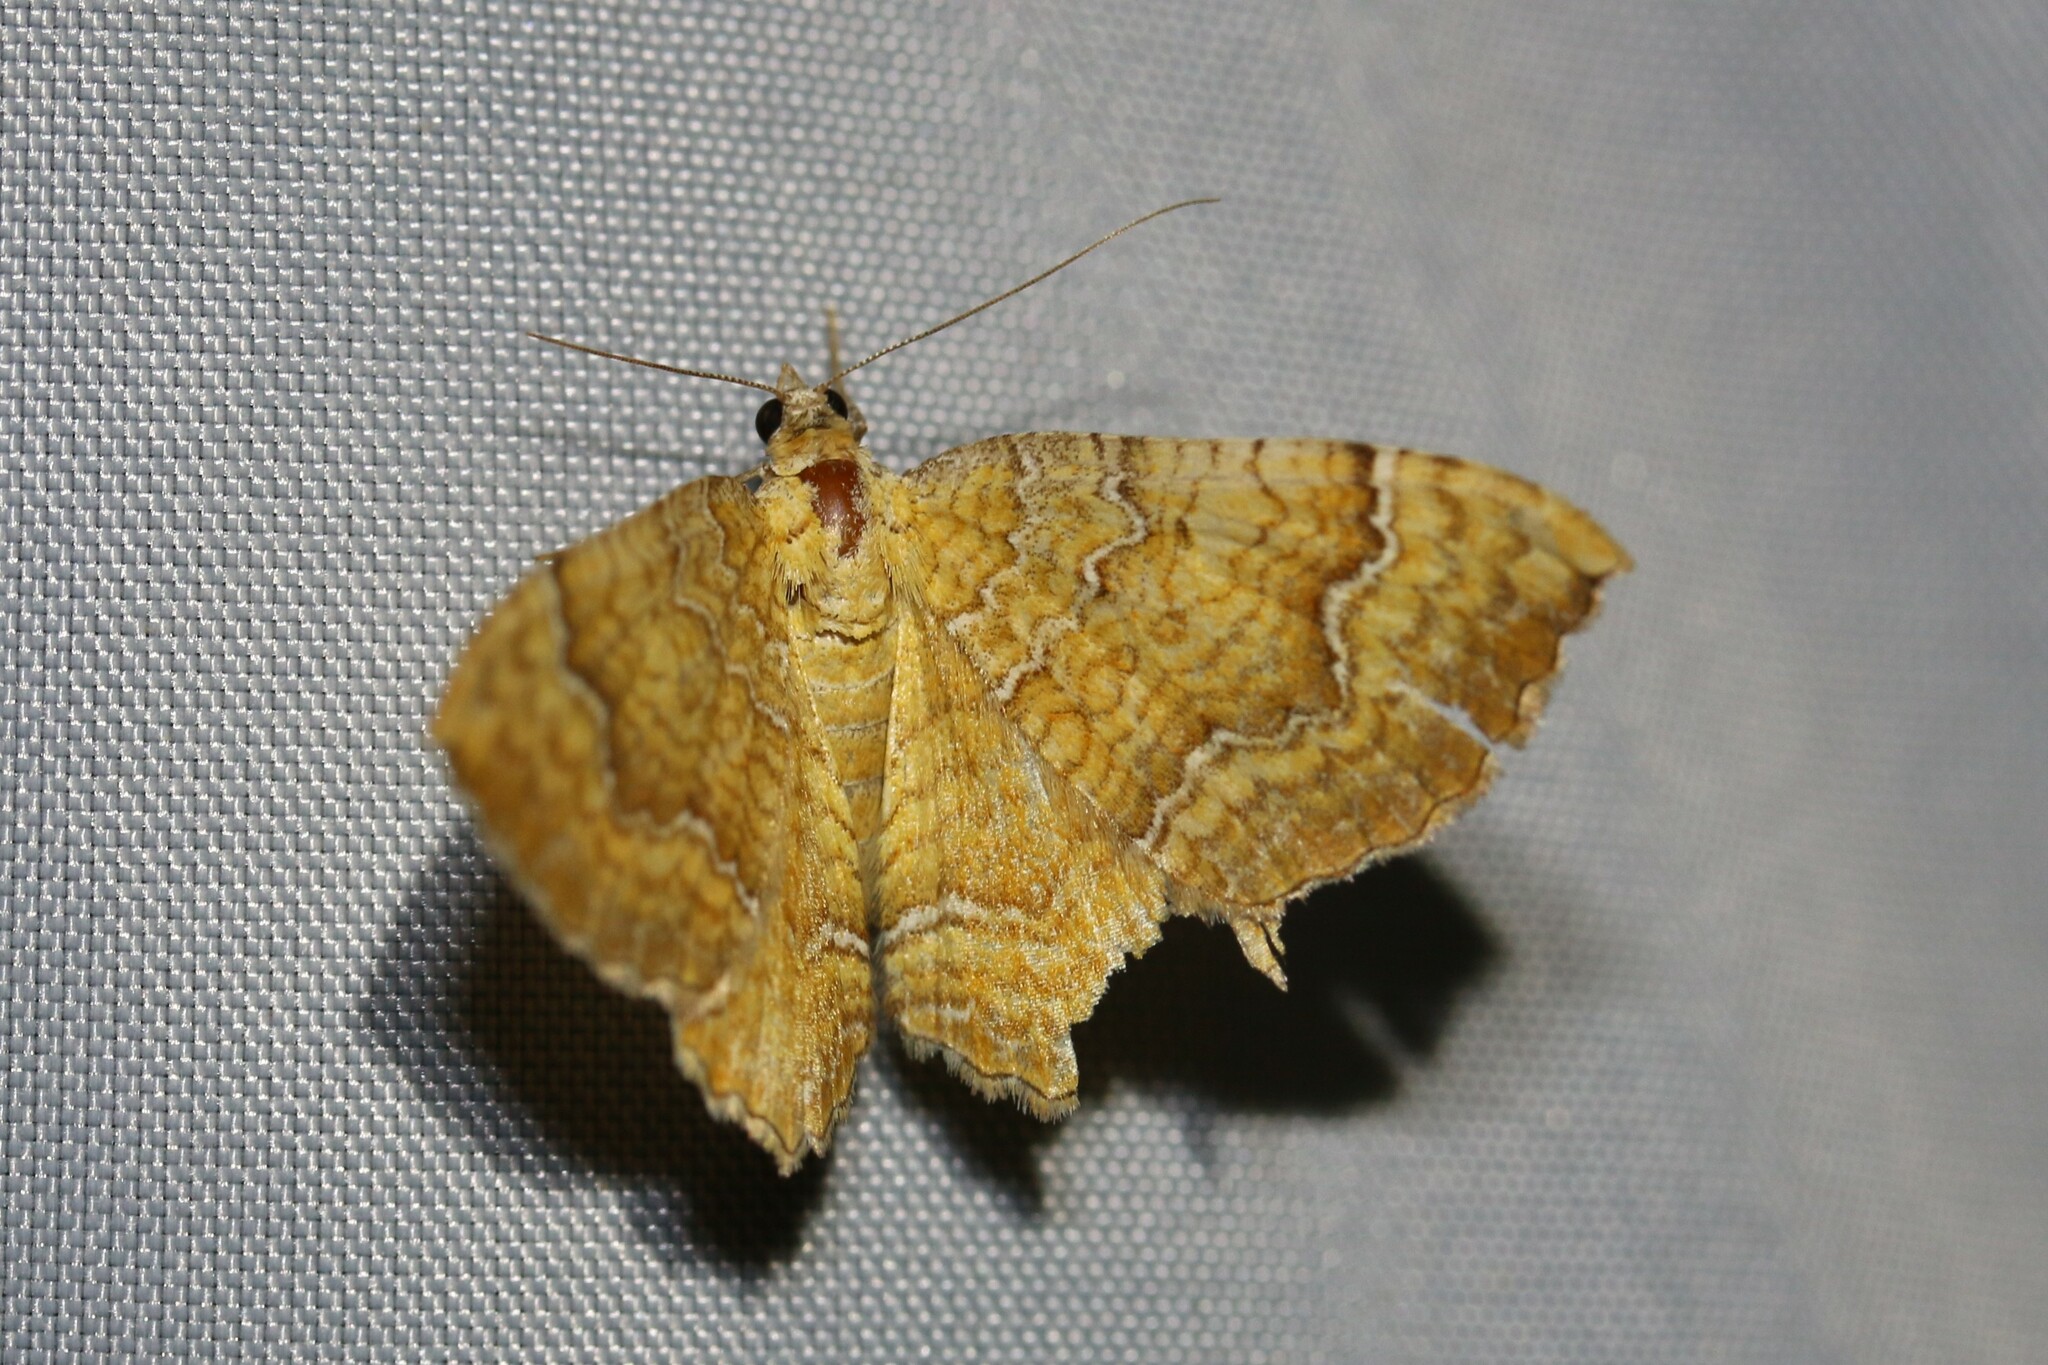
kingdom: Animalia
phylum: Arthropoda
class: Insecta
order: Lepidoptera
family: Geometridae
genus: Camptogramma
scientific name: Camptogramma bilineata
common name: Yellow shell
